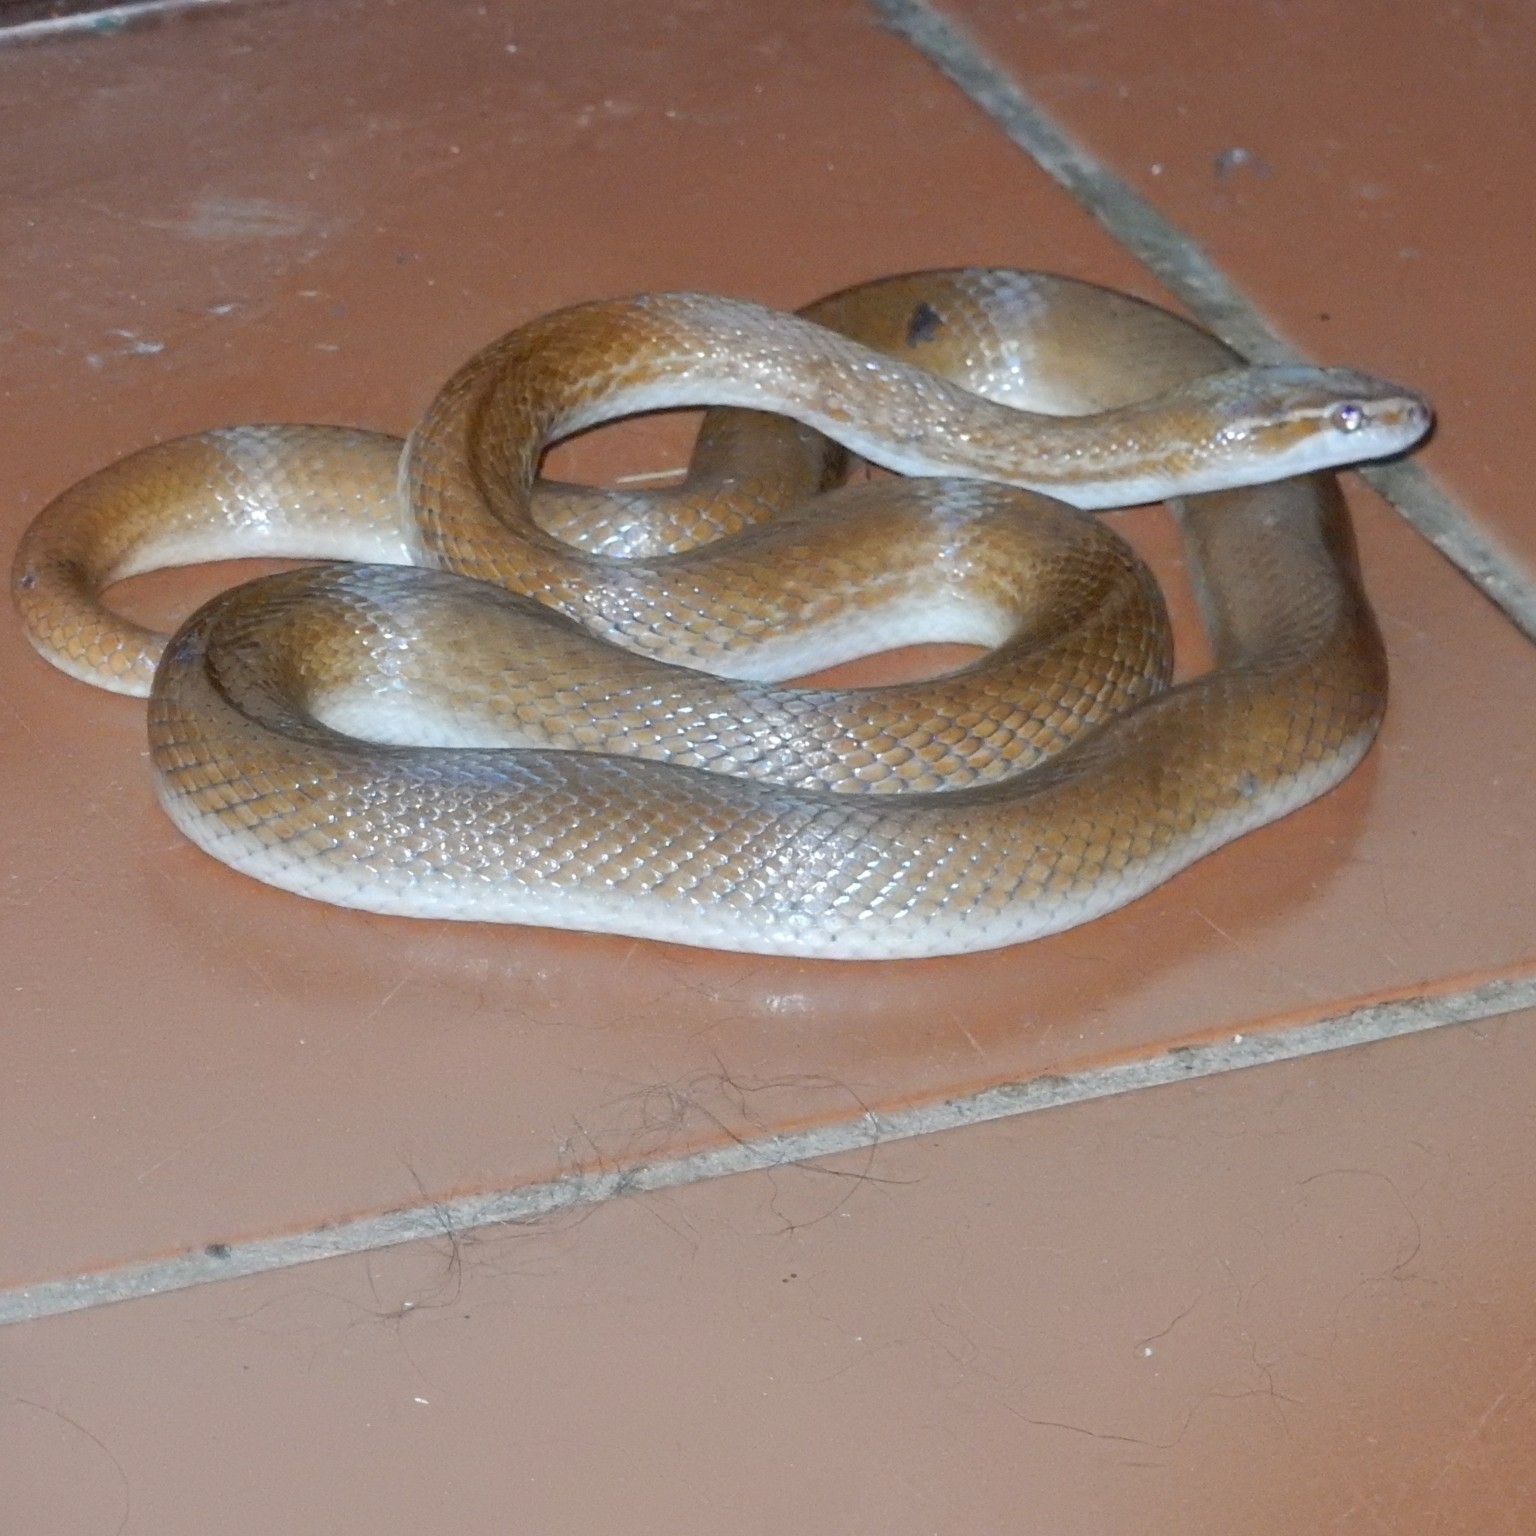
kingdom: Animalia
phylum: Chordata
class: Squamata
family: Lamprophiidae
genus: Boaedon
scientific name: Boaedon capensis
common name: Brown house snake
